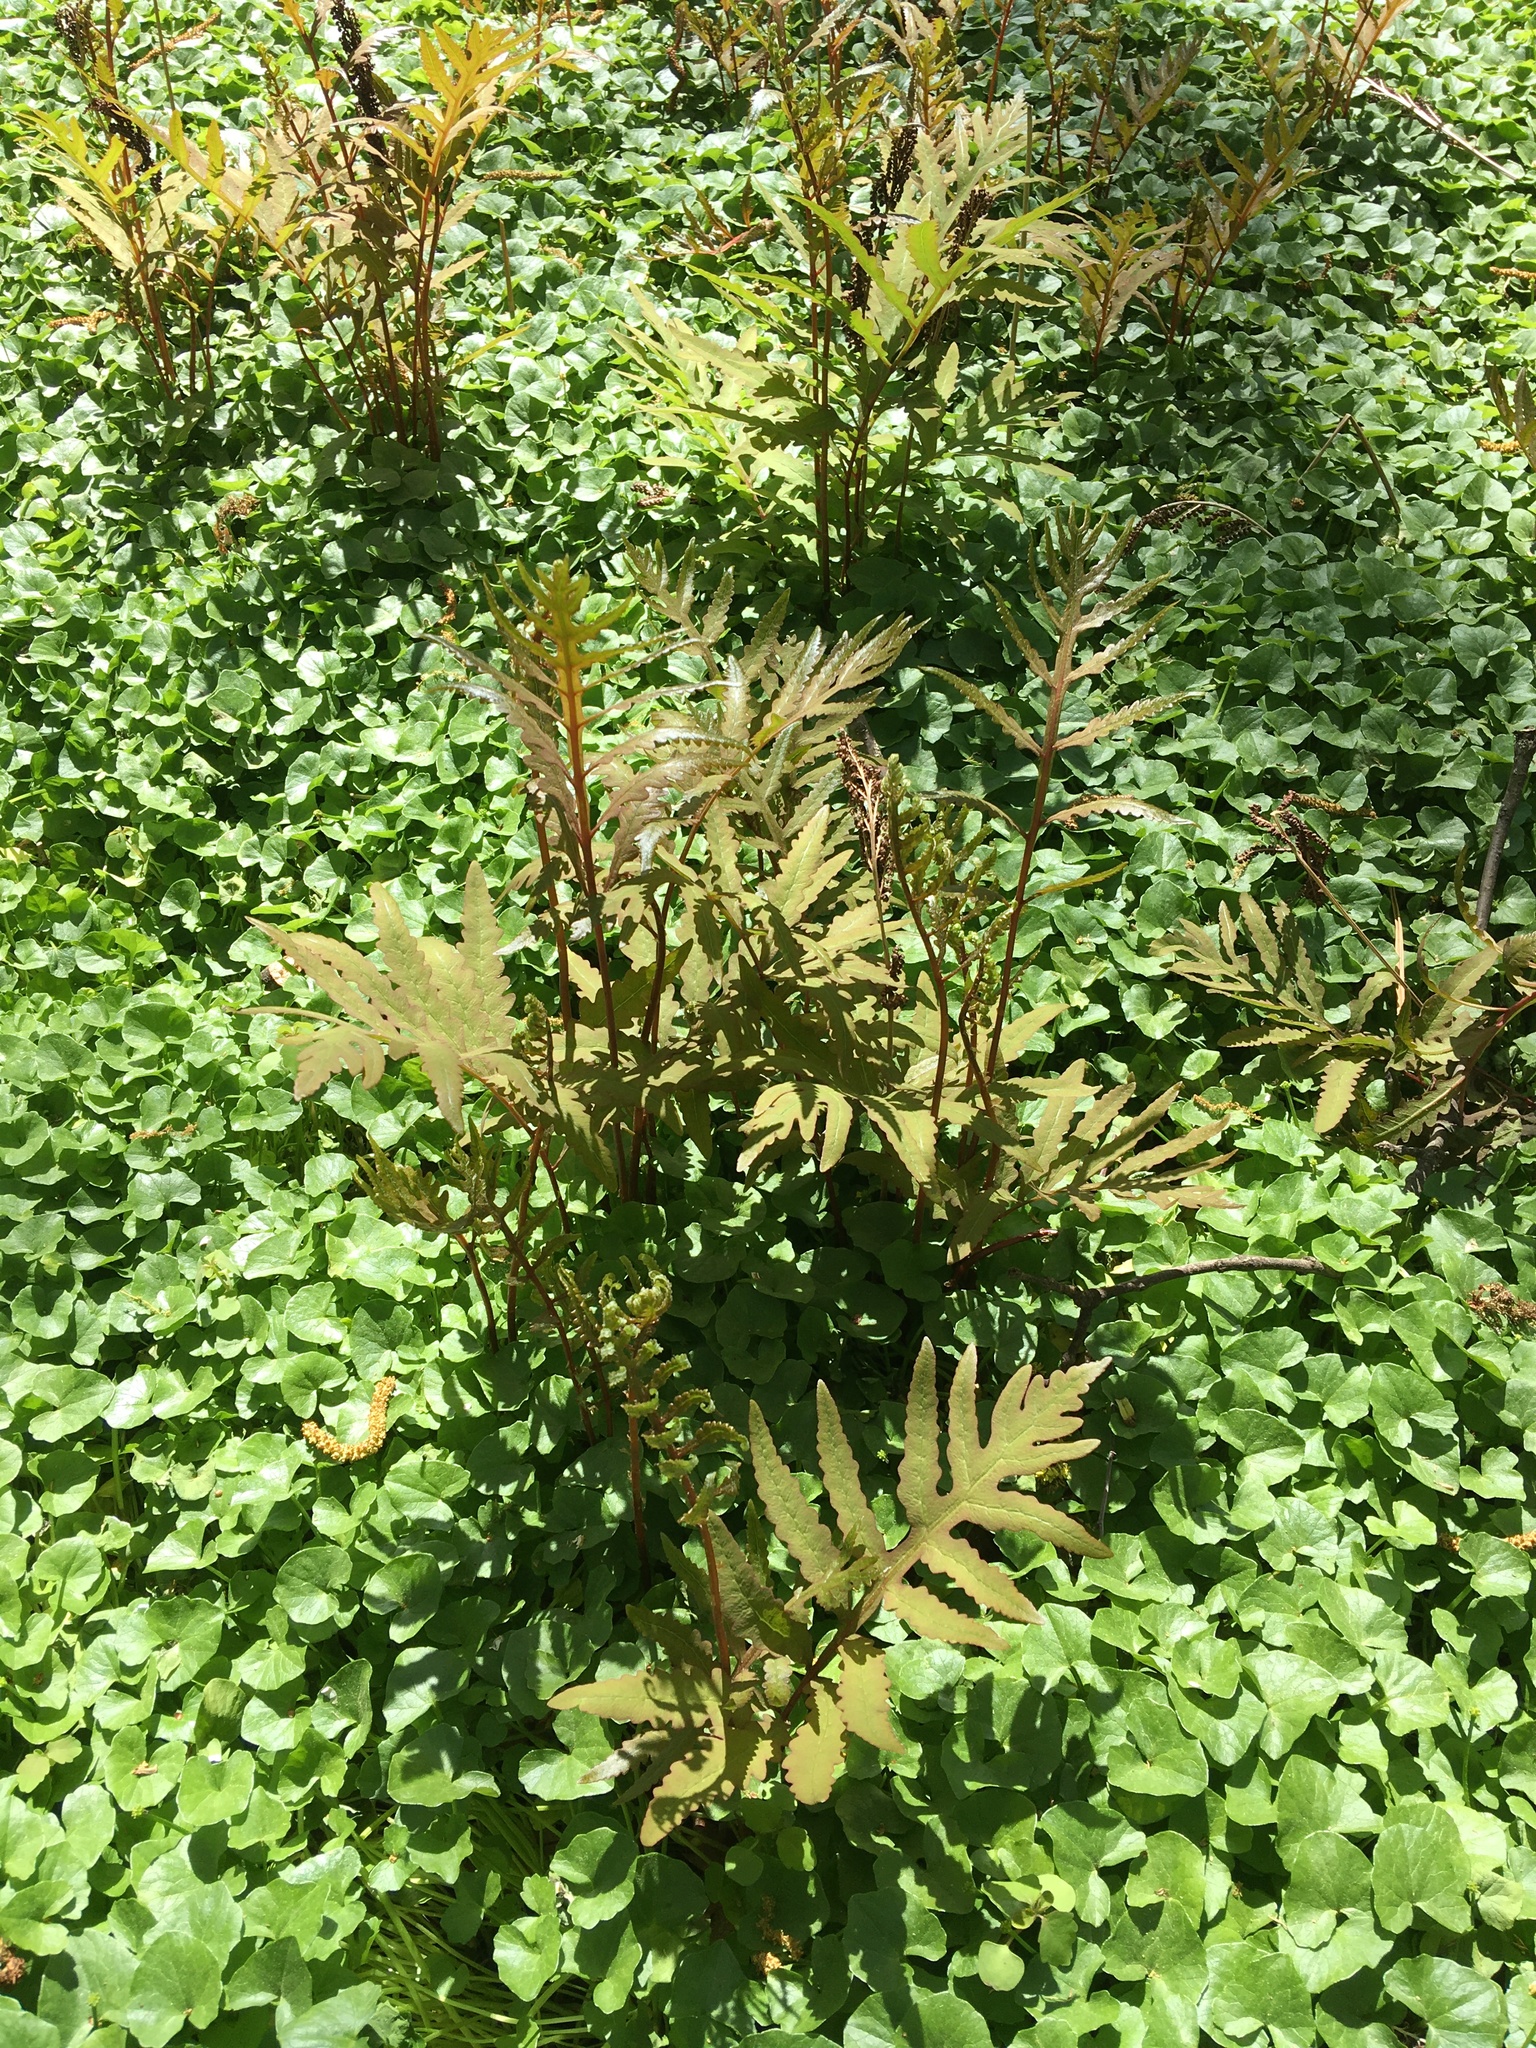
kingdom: Plantae
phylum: Tracheophyta
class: Polypodiopsida
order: Polypodiales
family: Onocleaceae
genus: Onoclea
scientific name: Onoclea sensibilis
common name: Sensitive fern
